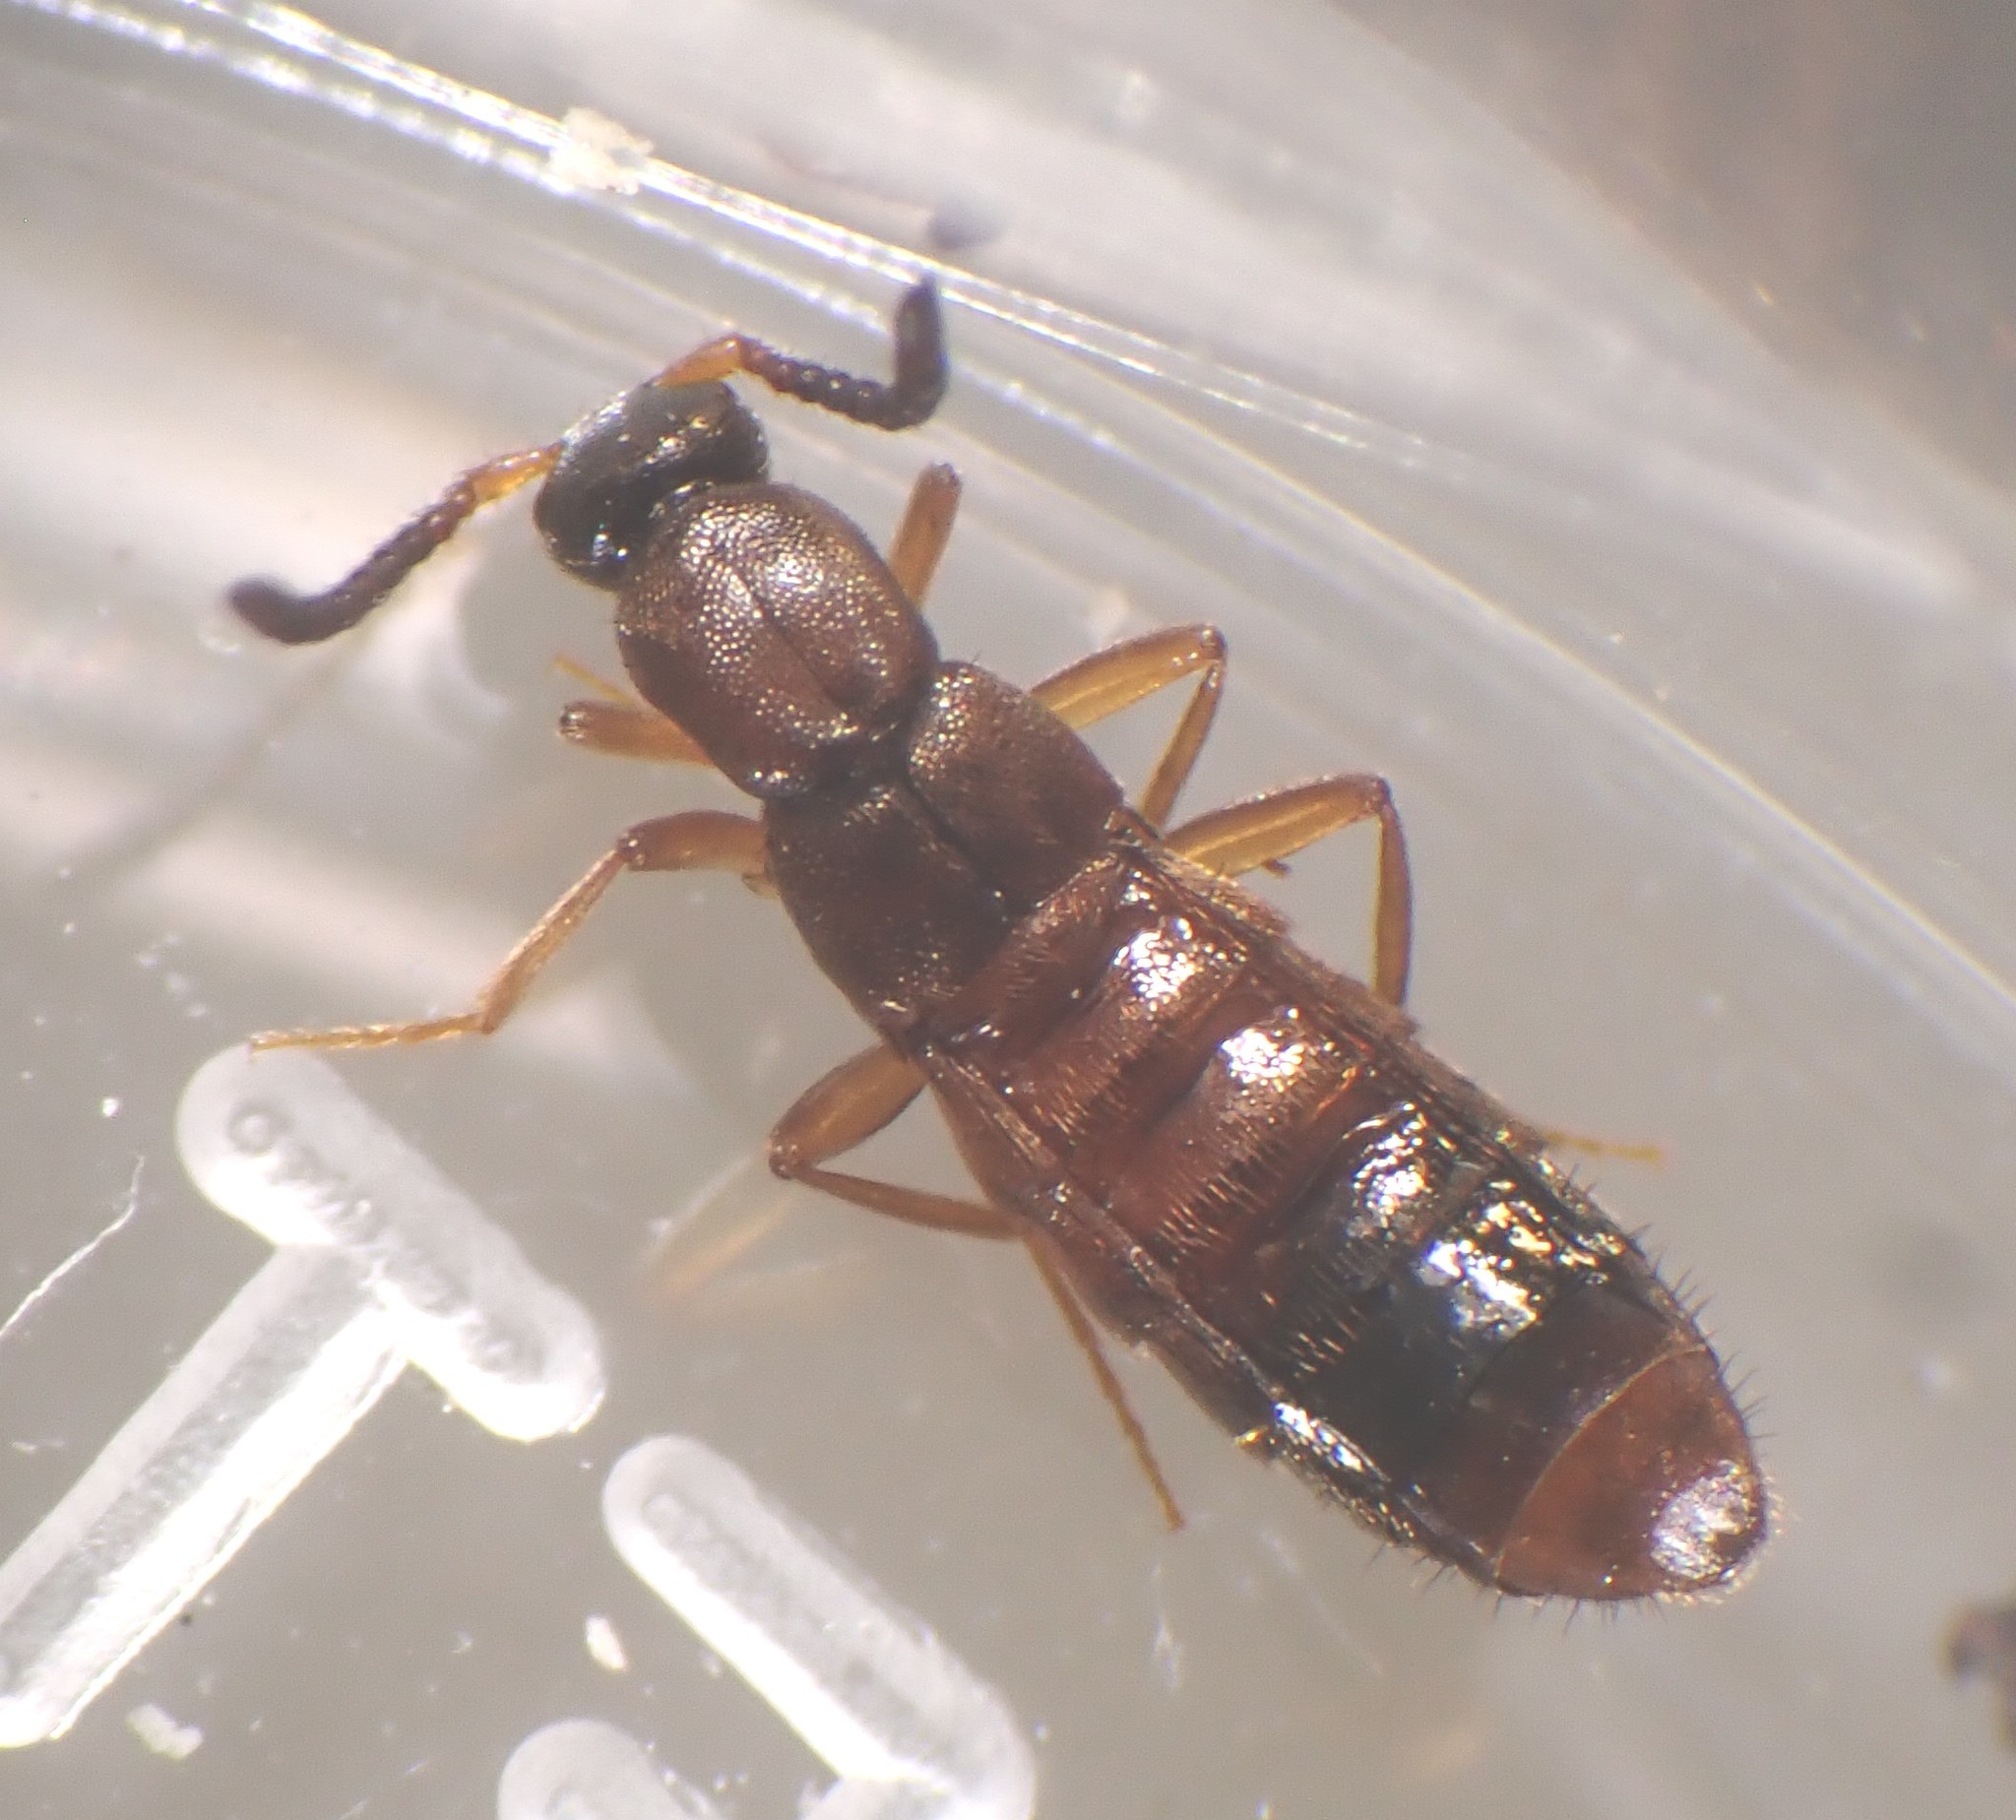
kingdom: Animalia
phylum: Arthropoda
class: Insecta
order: Coleoptera
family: Staphylinidae
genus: Drusilla
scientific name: Drusilla canaliculata
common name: Rove beetle
